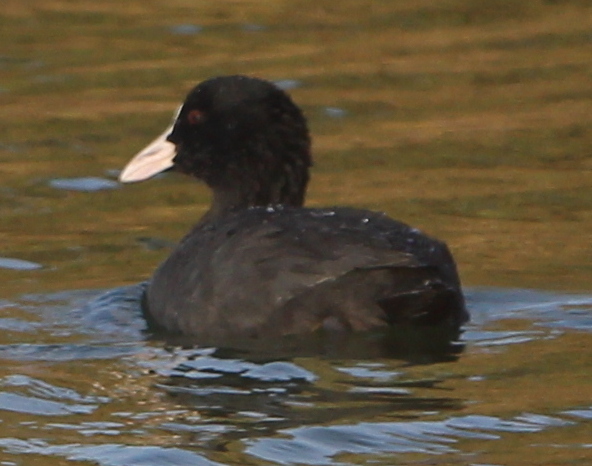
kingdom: Animalia
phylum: Chordata
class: Aves
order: Gruiformes
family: Rallidae
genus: Fulica
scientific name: Fulica atra
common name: Eurasian coot
